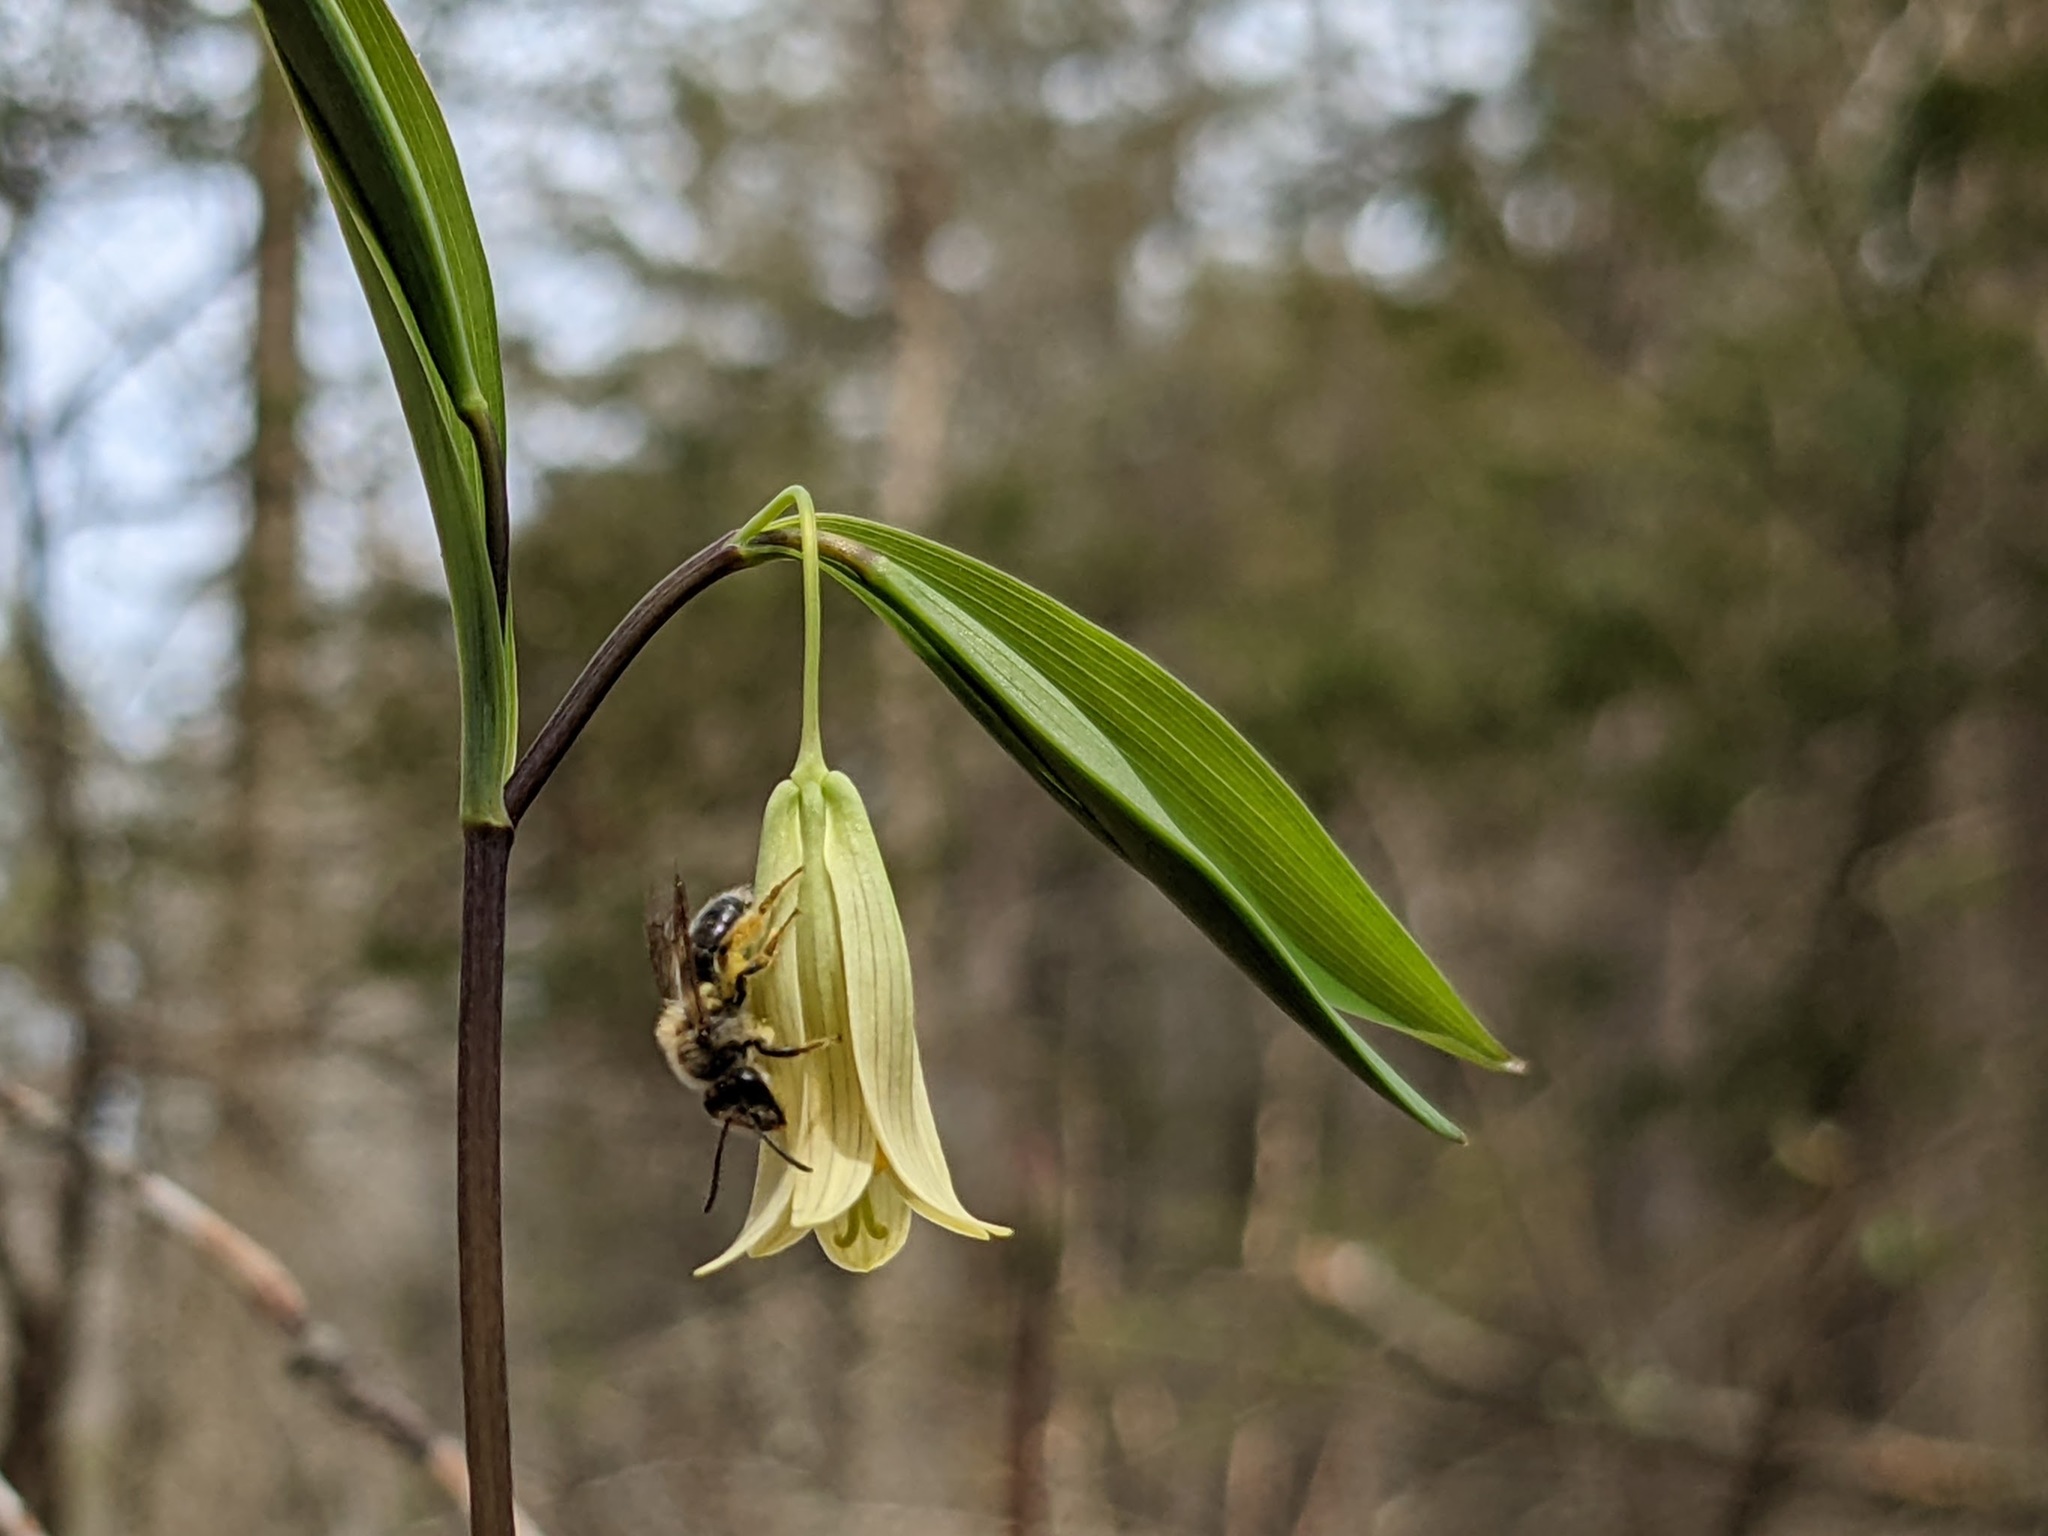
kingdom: Plantae
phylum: Tracheophyta
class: Liliopsida
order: Liliales
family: Colchicaceae
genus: Uvularia
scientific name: Uvularia sessilifolia
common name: Straw-lily
